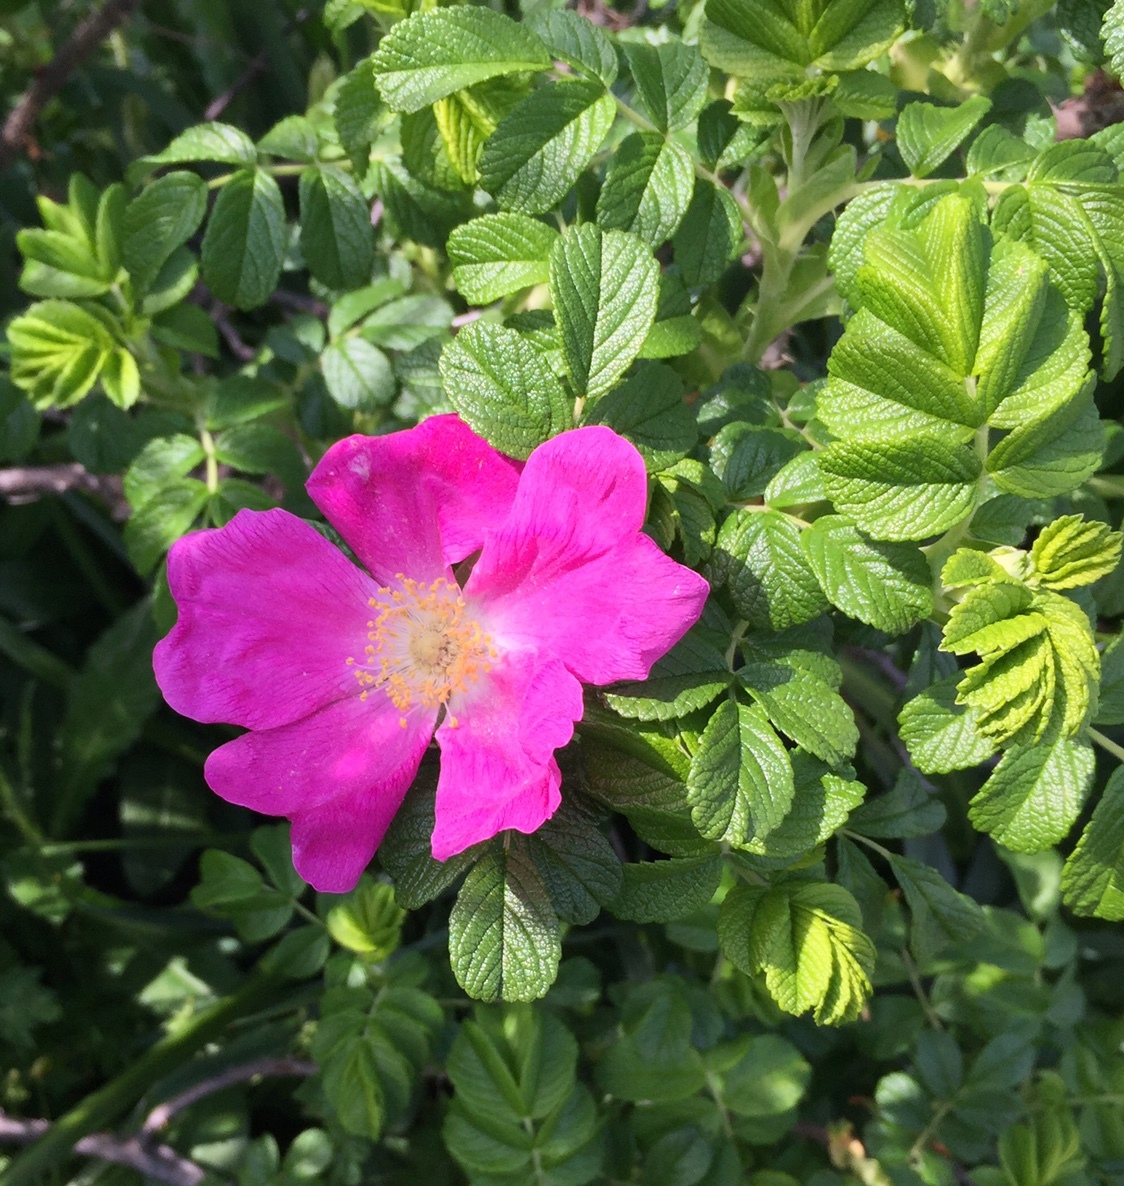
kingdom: Plantae
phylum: Tracheophyta
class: Magnoliopsida
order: Rosales
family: Rosaceae
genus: Rosa
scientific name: Rosa rugosa
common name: Japanese rose
